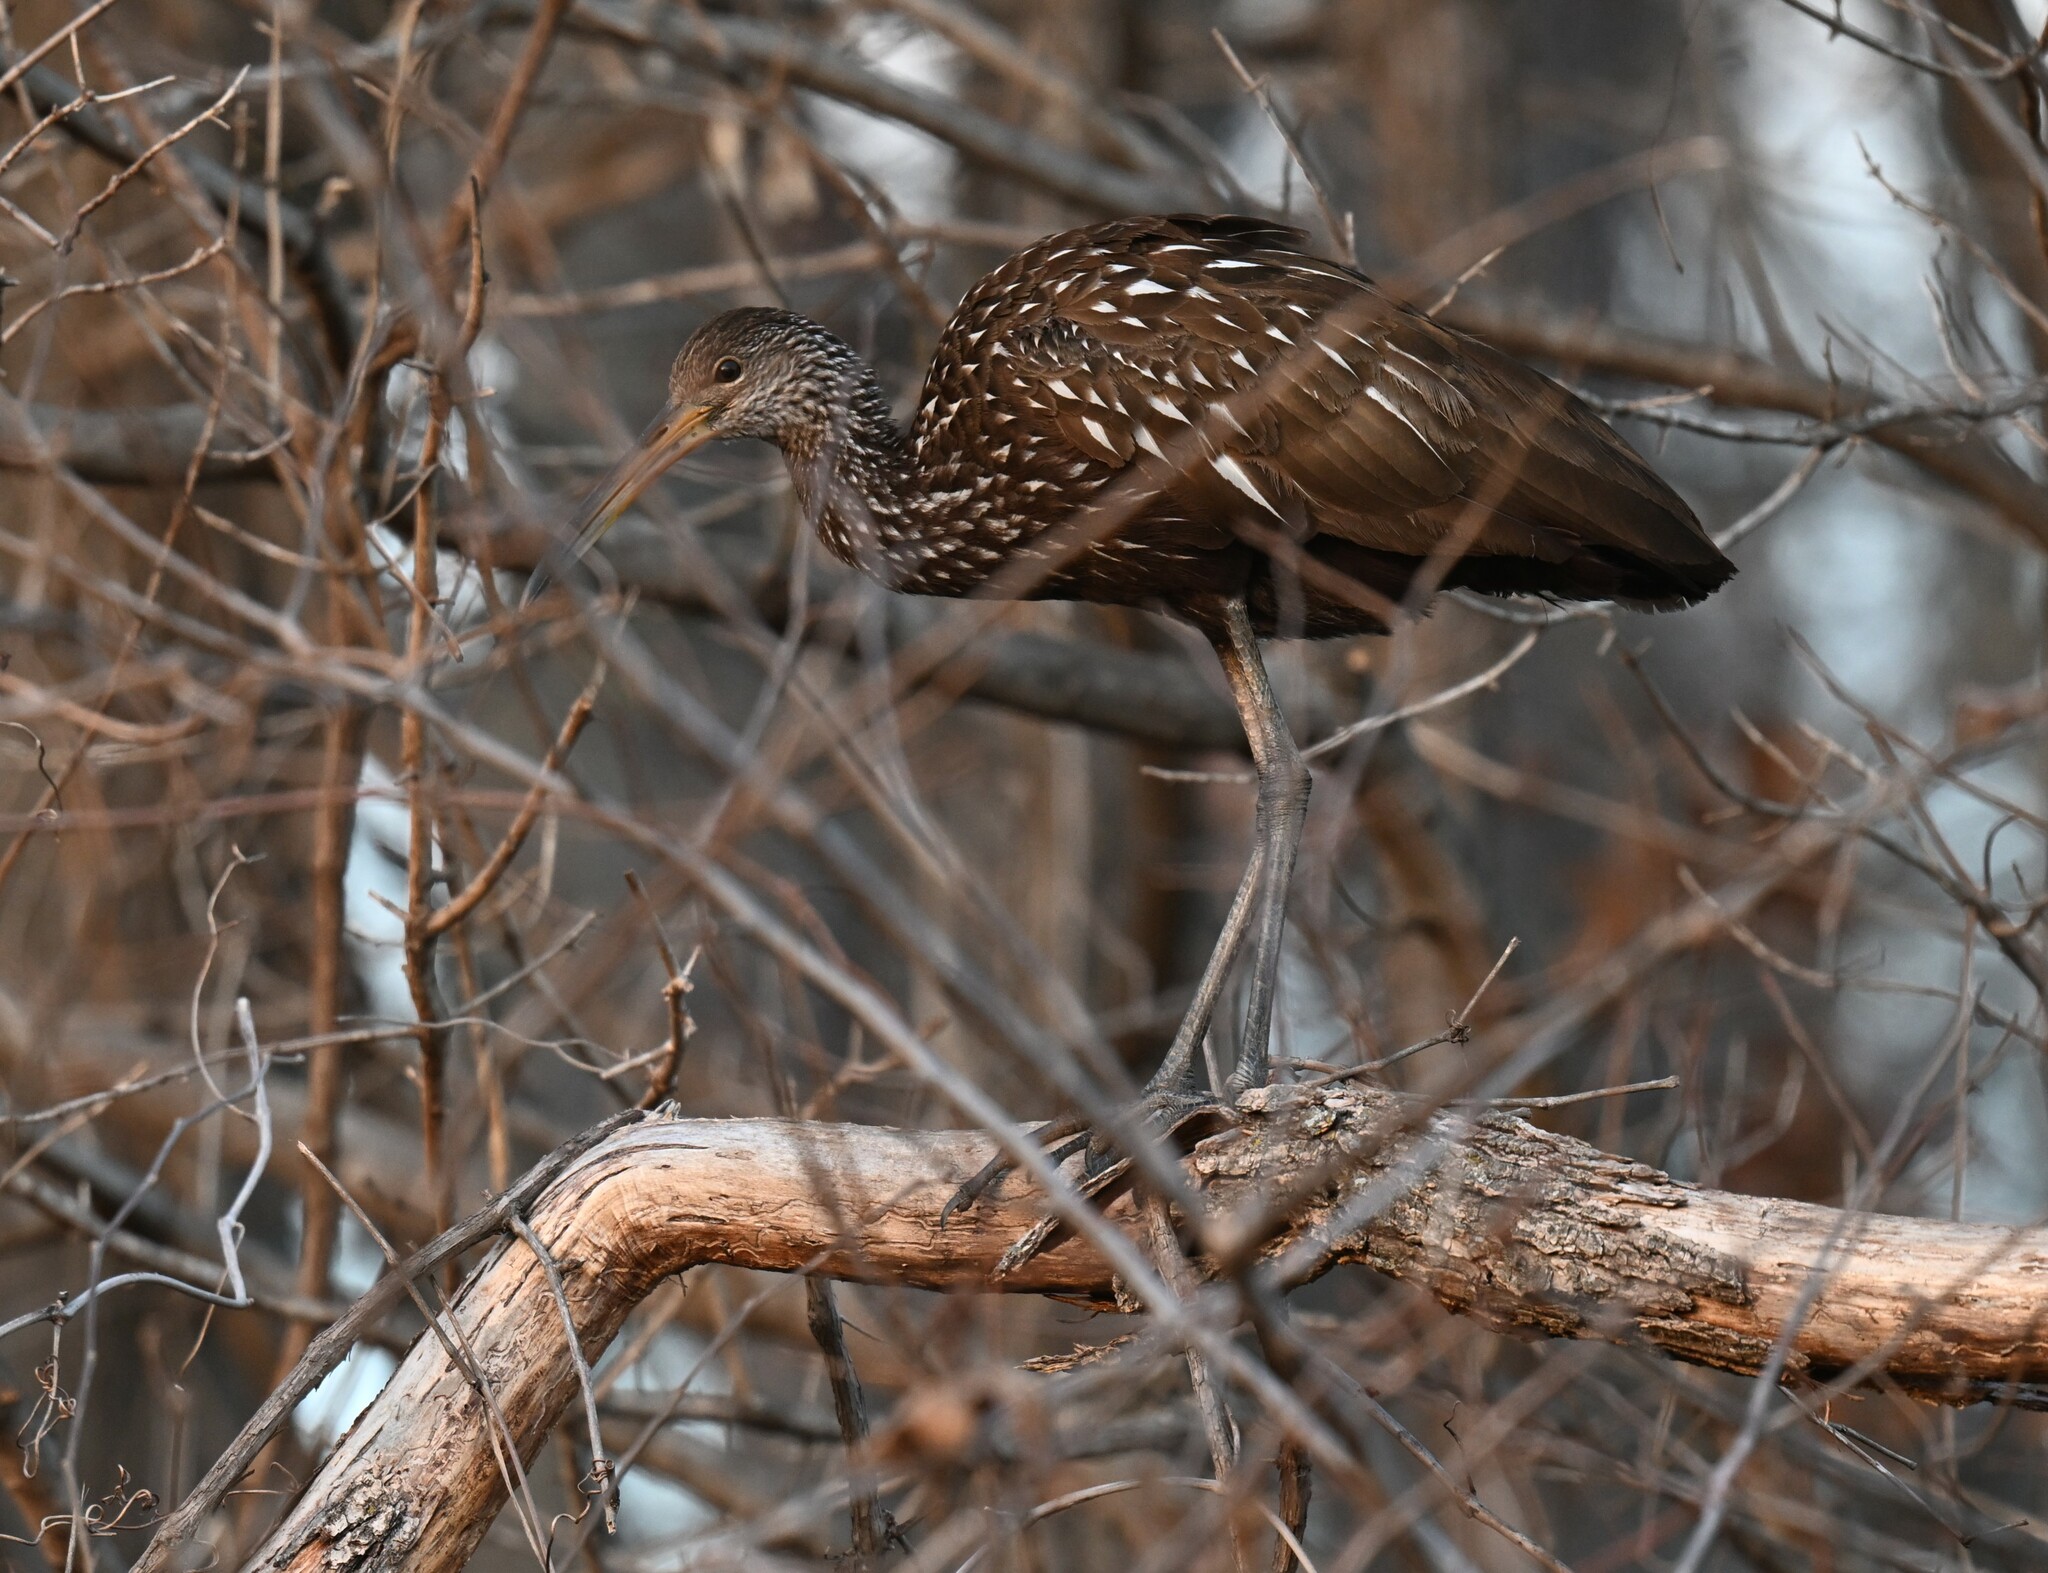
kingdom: Animalia
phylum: Chordata
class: Aves
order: Gruiformes
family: Aramidae
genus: Aramus
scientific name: Aramus guarauna
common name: Limpkin
